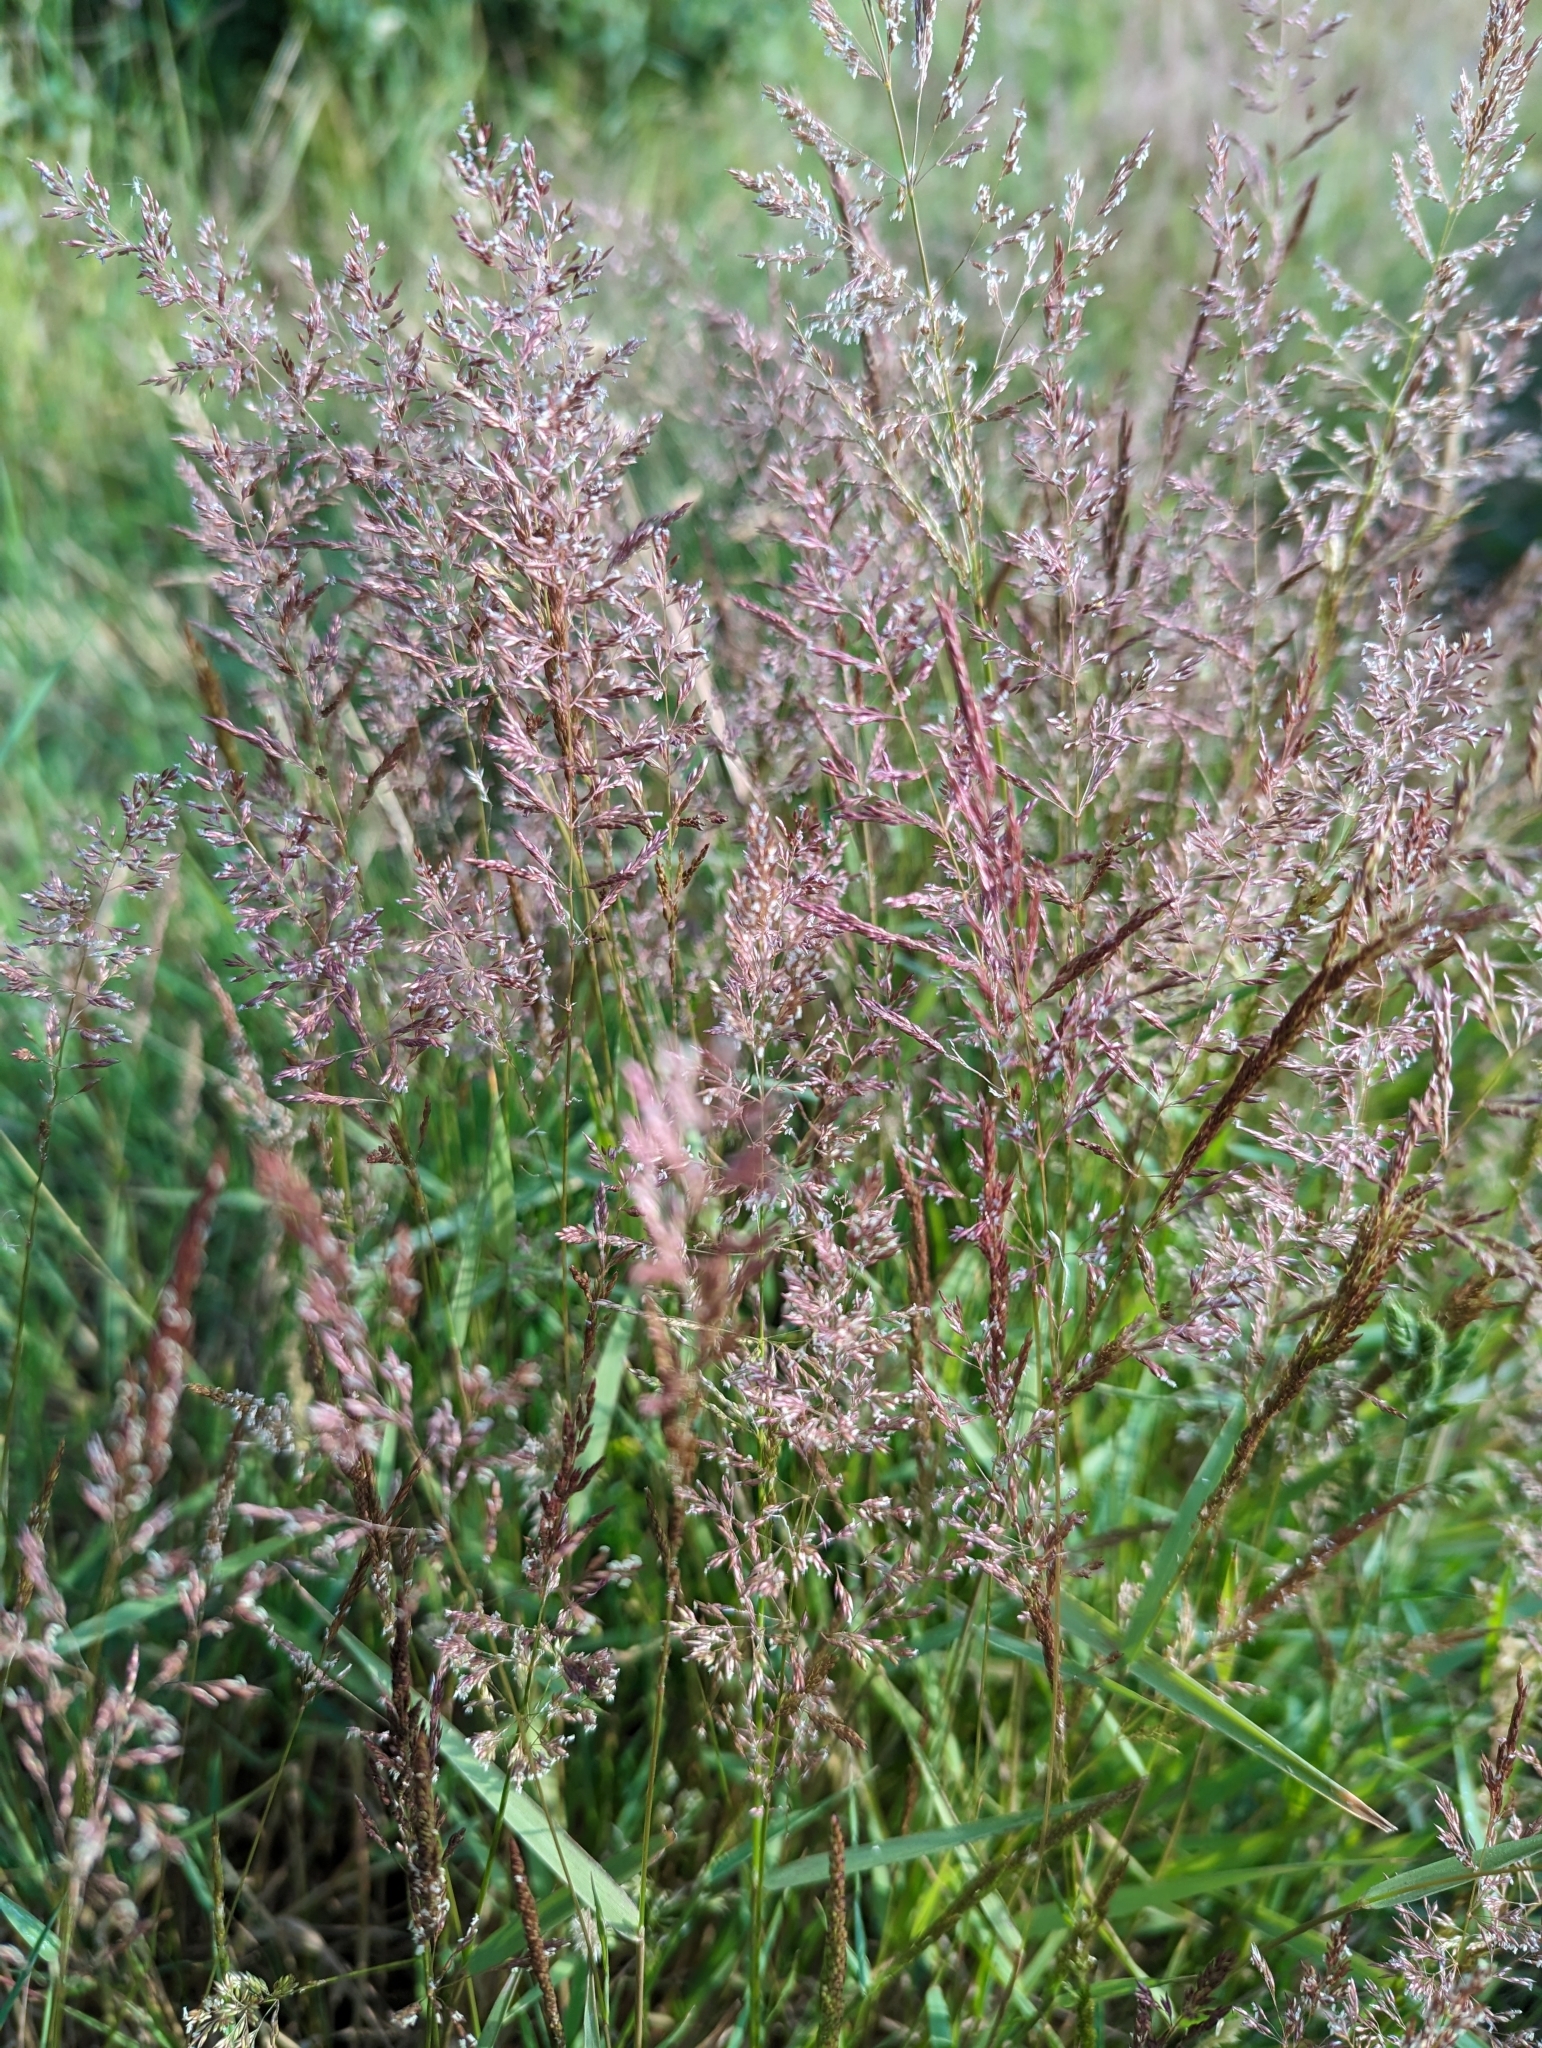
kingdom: Plantae
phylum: Tracheophyta
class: Liliopsida
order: Poales
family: Poaceae
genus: Agrostis
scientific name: Agrostis capillaris
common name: Colonial bentgrass
